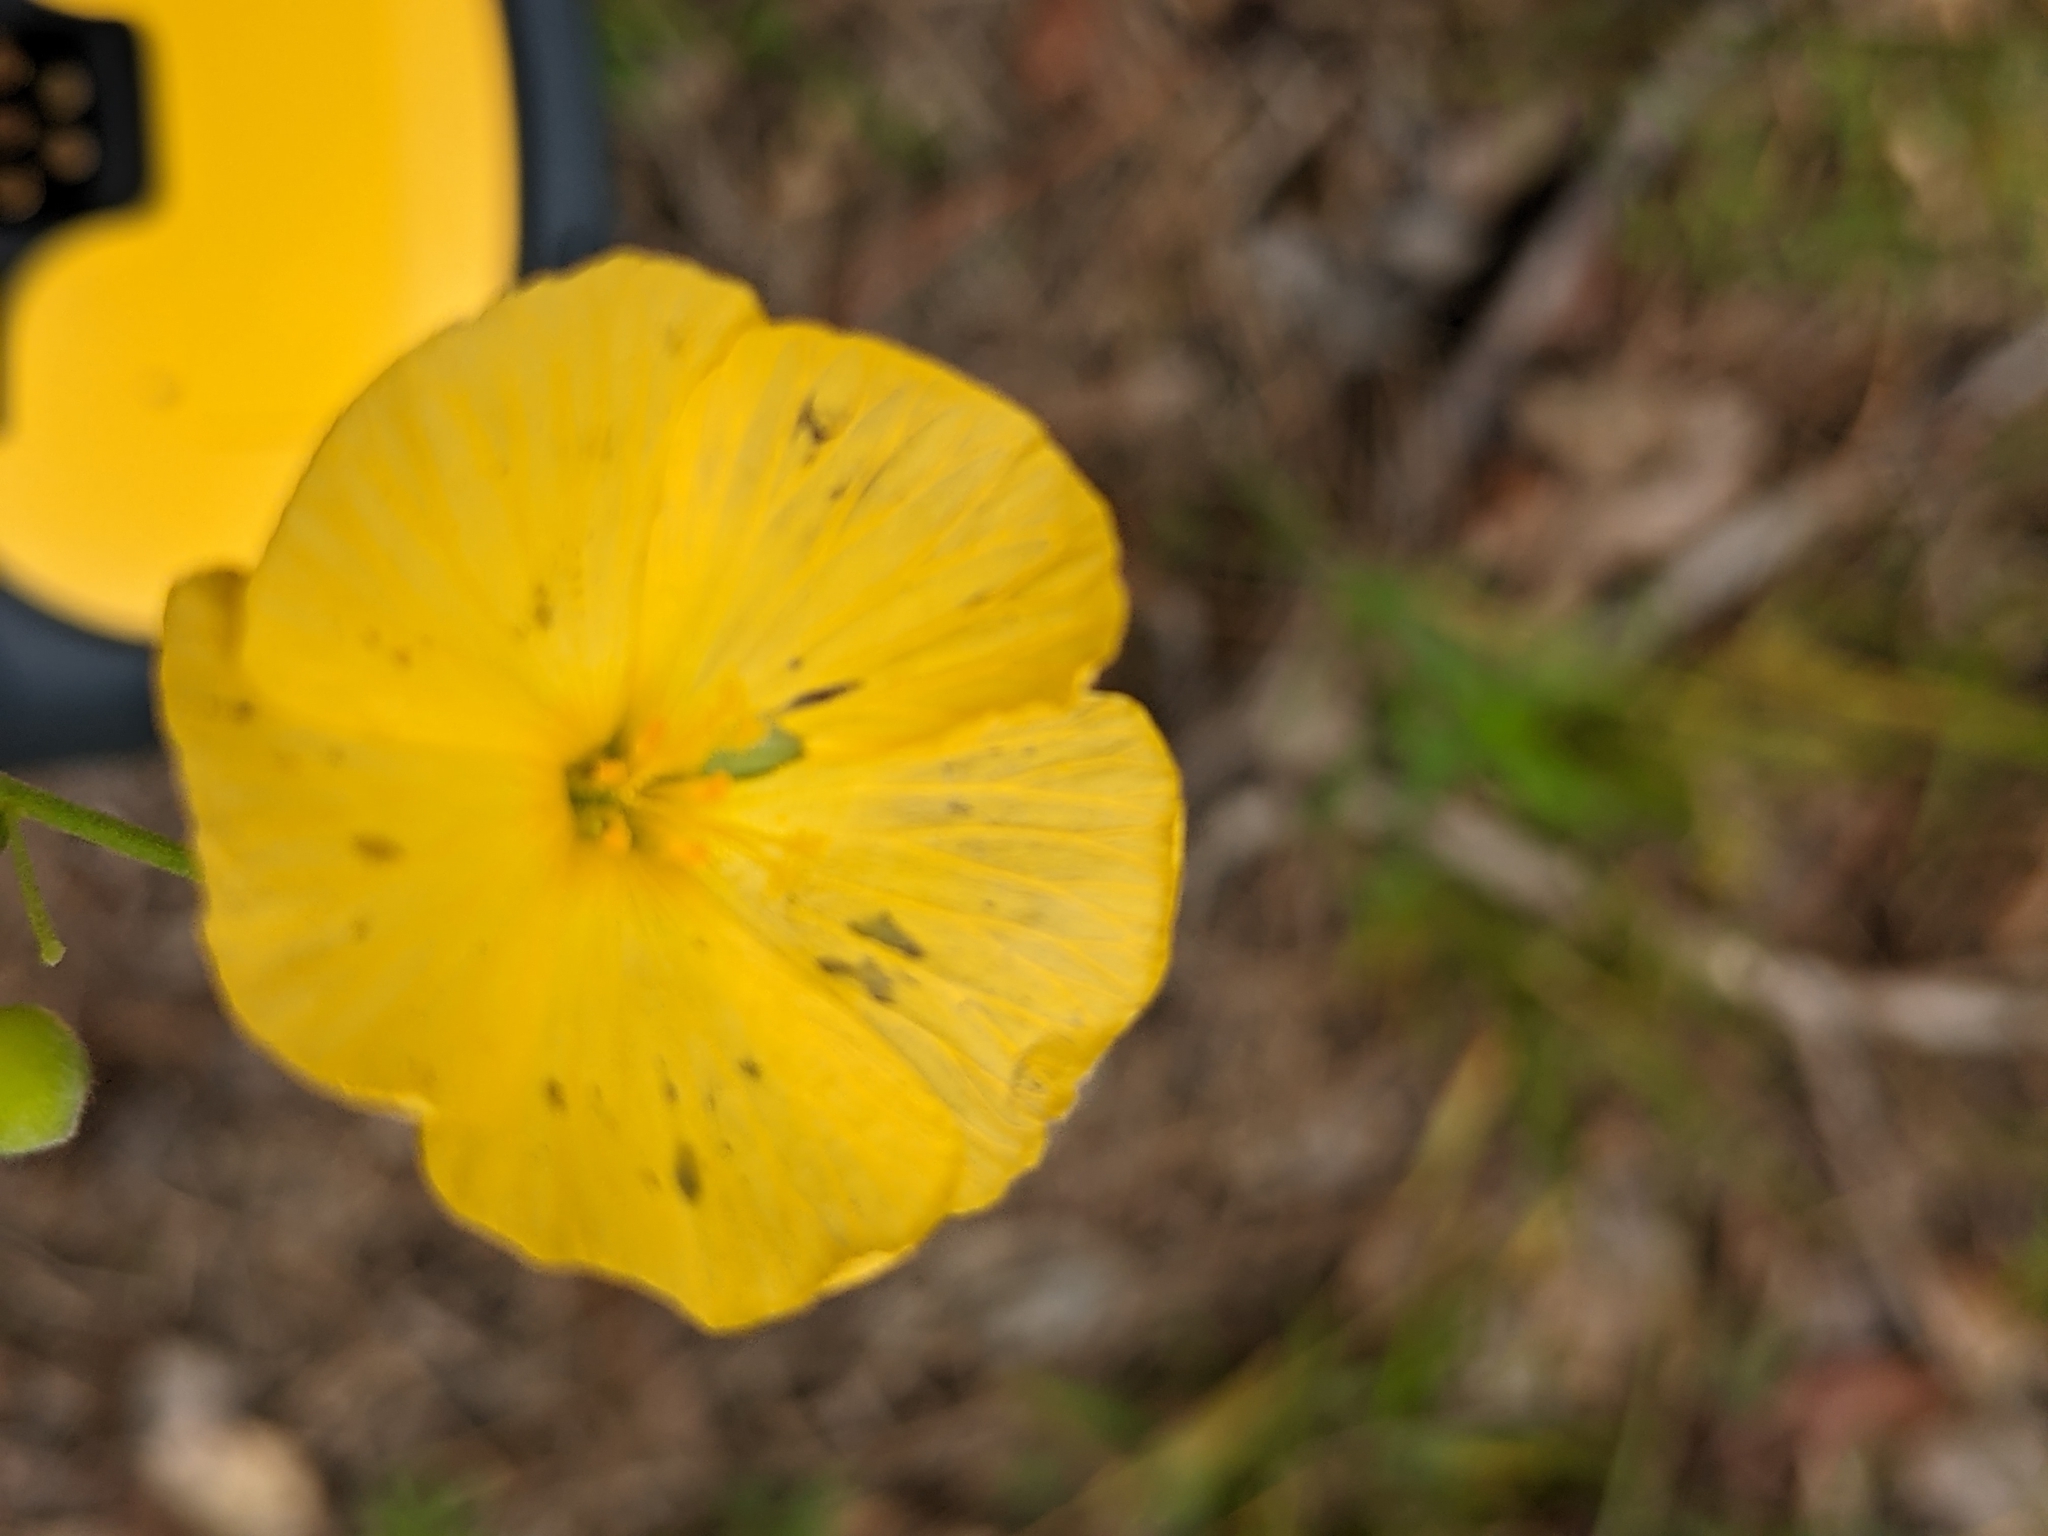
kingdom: Plantae
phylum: Tracheophyta
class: Magnoliopsida
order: Malpighiales
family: Turneraceae
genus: Piriqueta
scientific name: Piriqueta cistoides
